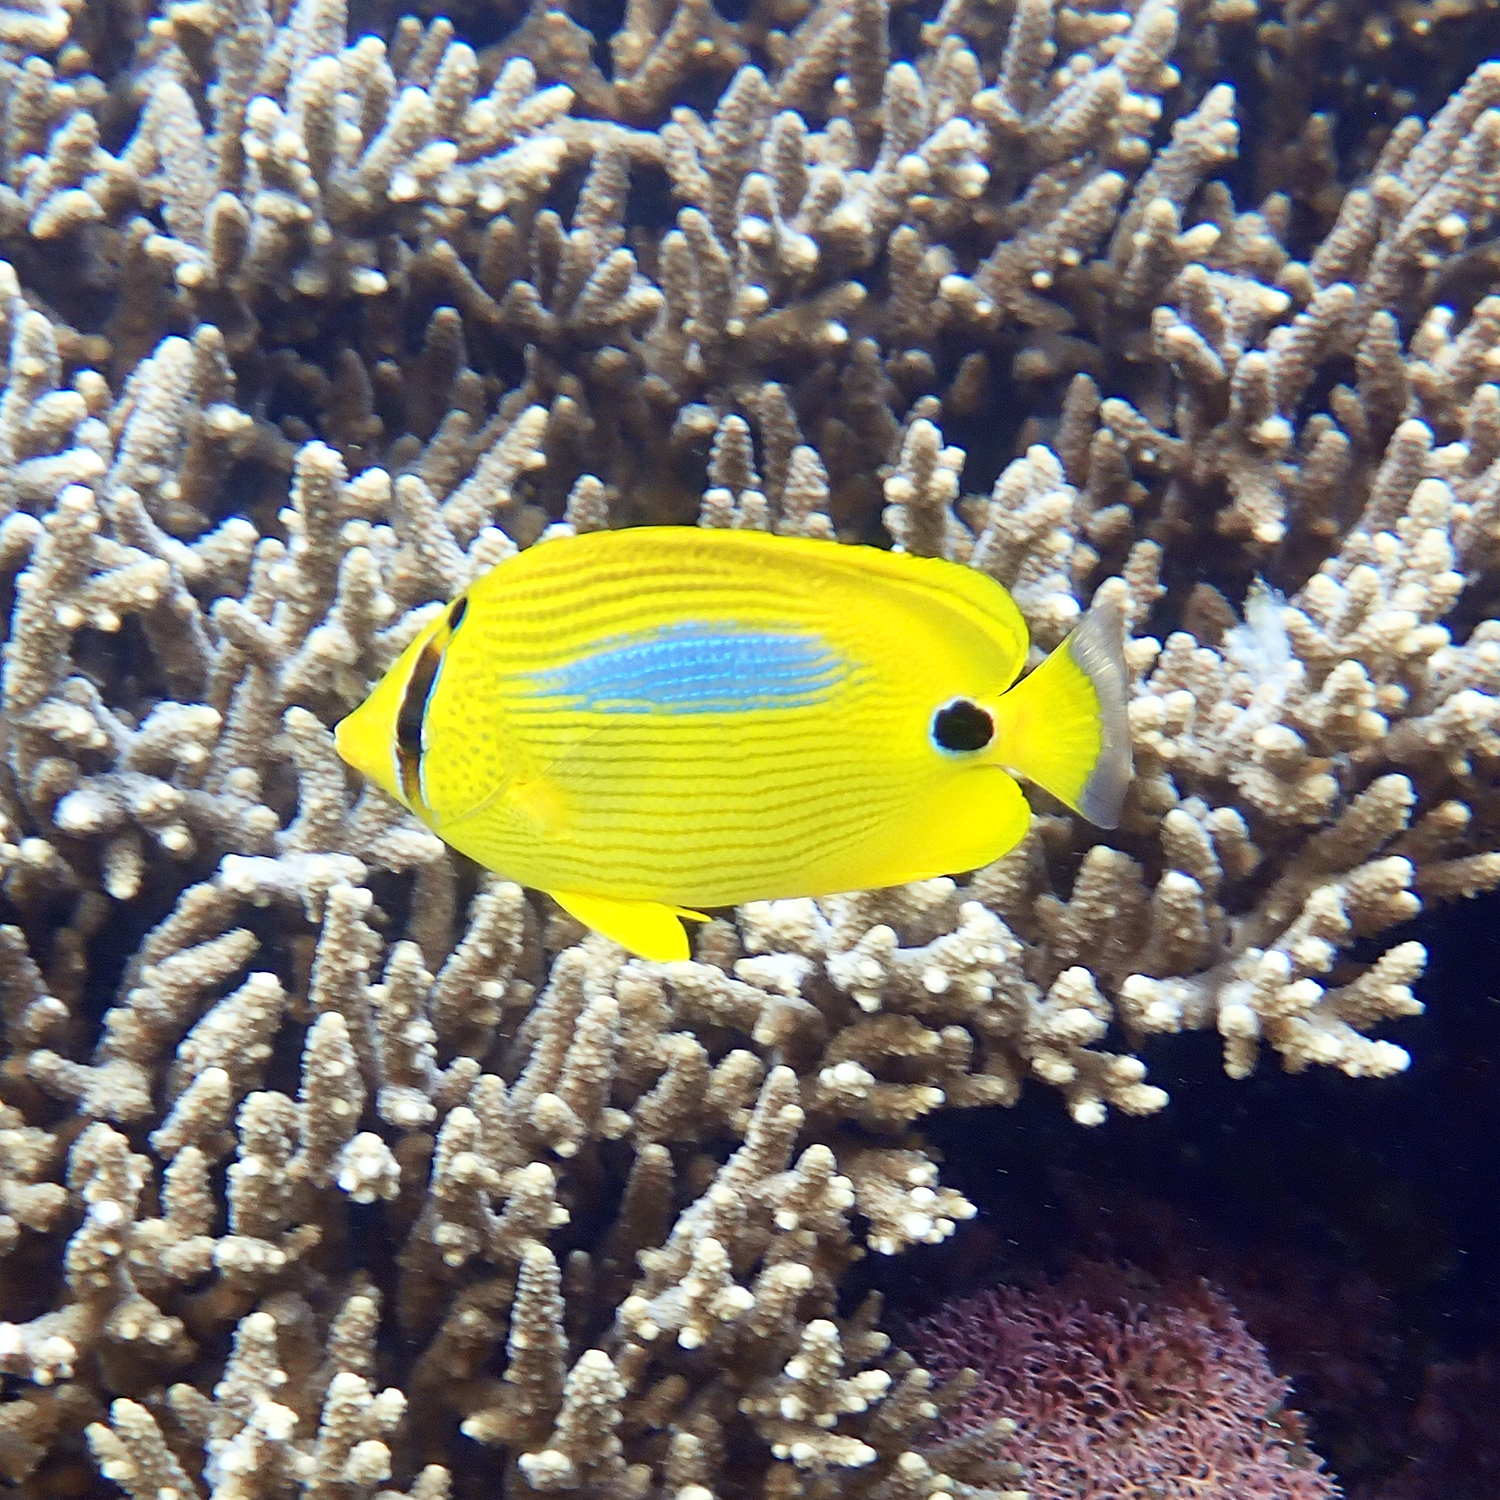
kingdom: Animalia
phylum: Chordata
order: Perciformes
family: Chaetodontidae
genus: Chaetodon
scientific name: Chaetodon plebeius
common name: Bluespot butterflyfish
